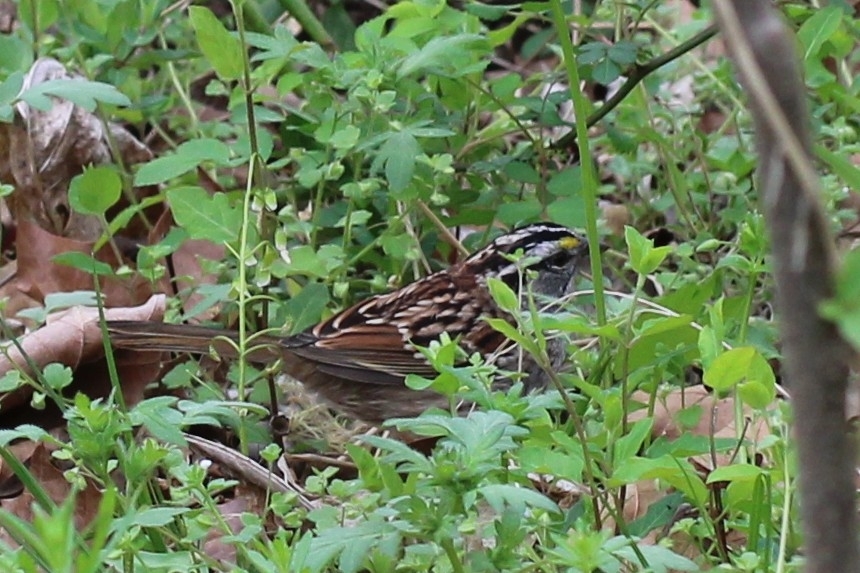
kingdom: Animalia
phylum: Chordata
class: Aves
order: Passeriformes
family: Passerellidae
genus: Zonotrichia
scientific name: Zonotrichia albicollis
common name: White-throated sparrow
